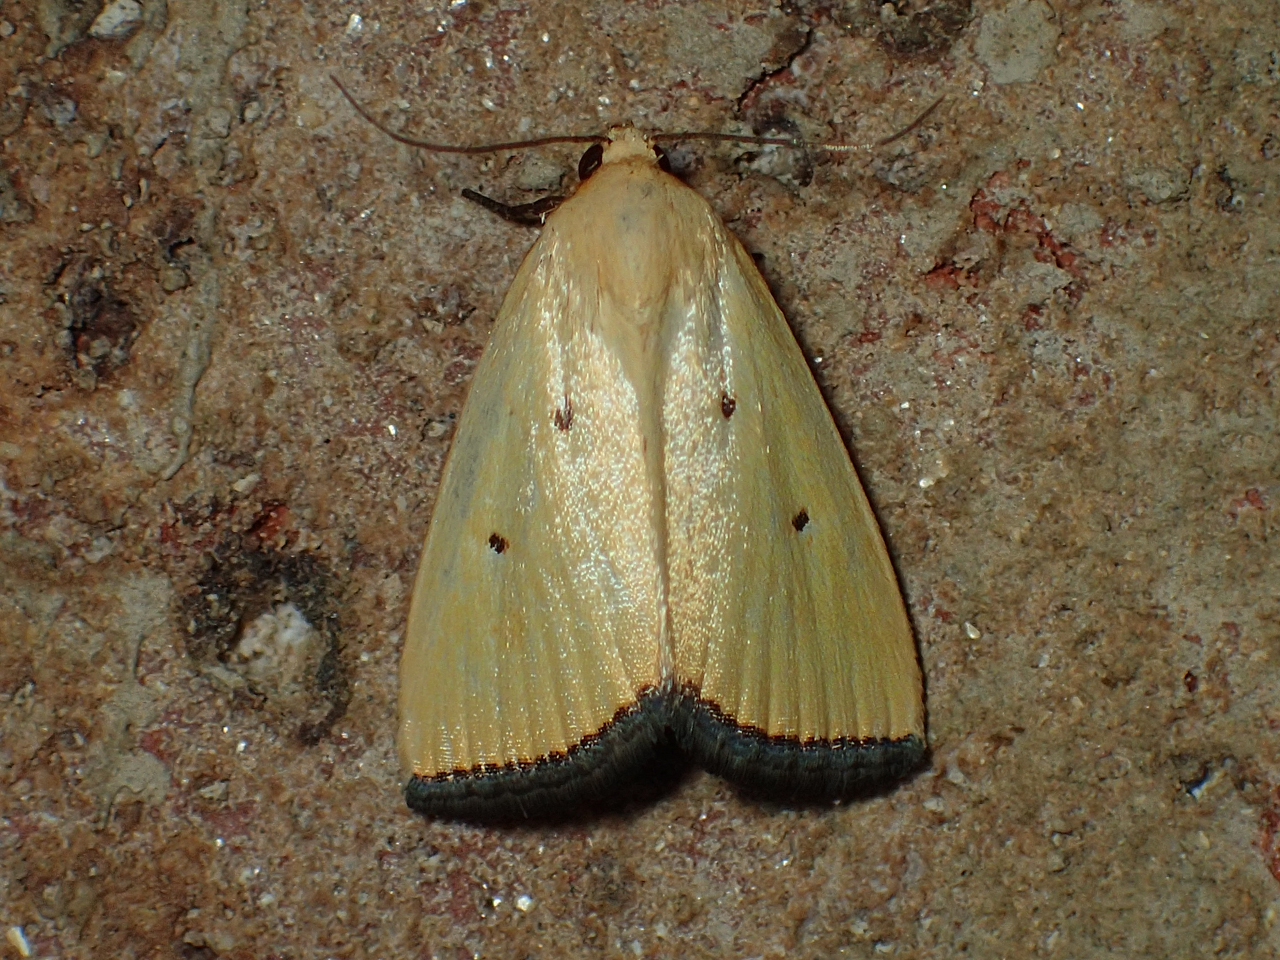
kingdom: Animalia
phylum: Arthropoda
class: Insecta
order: Lepidoptera
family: Noctuidae
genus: Marimatha
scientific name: Marimatha nigrofimbria
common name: Black-bordered lemon moth
